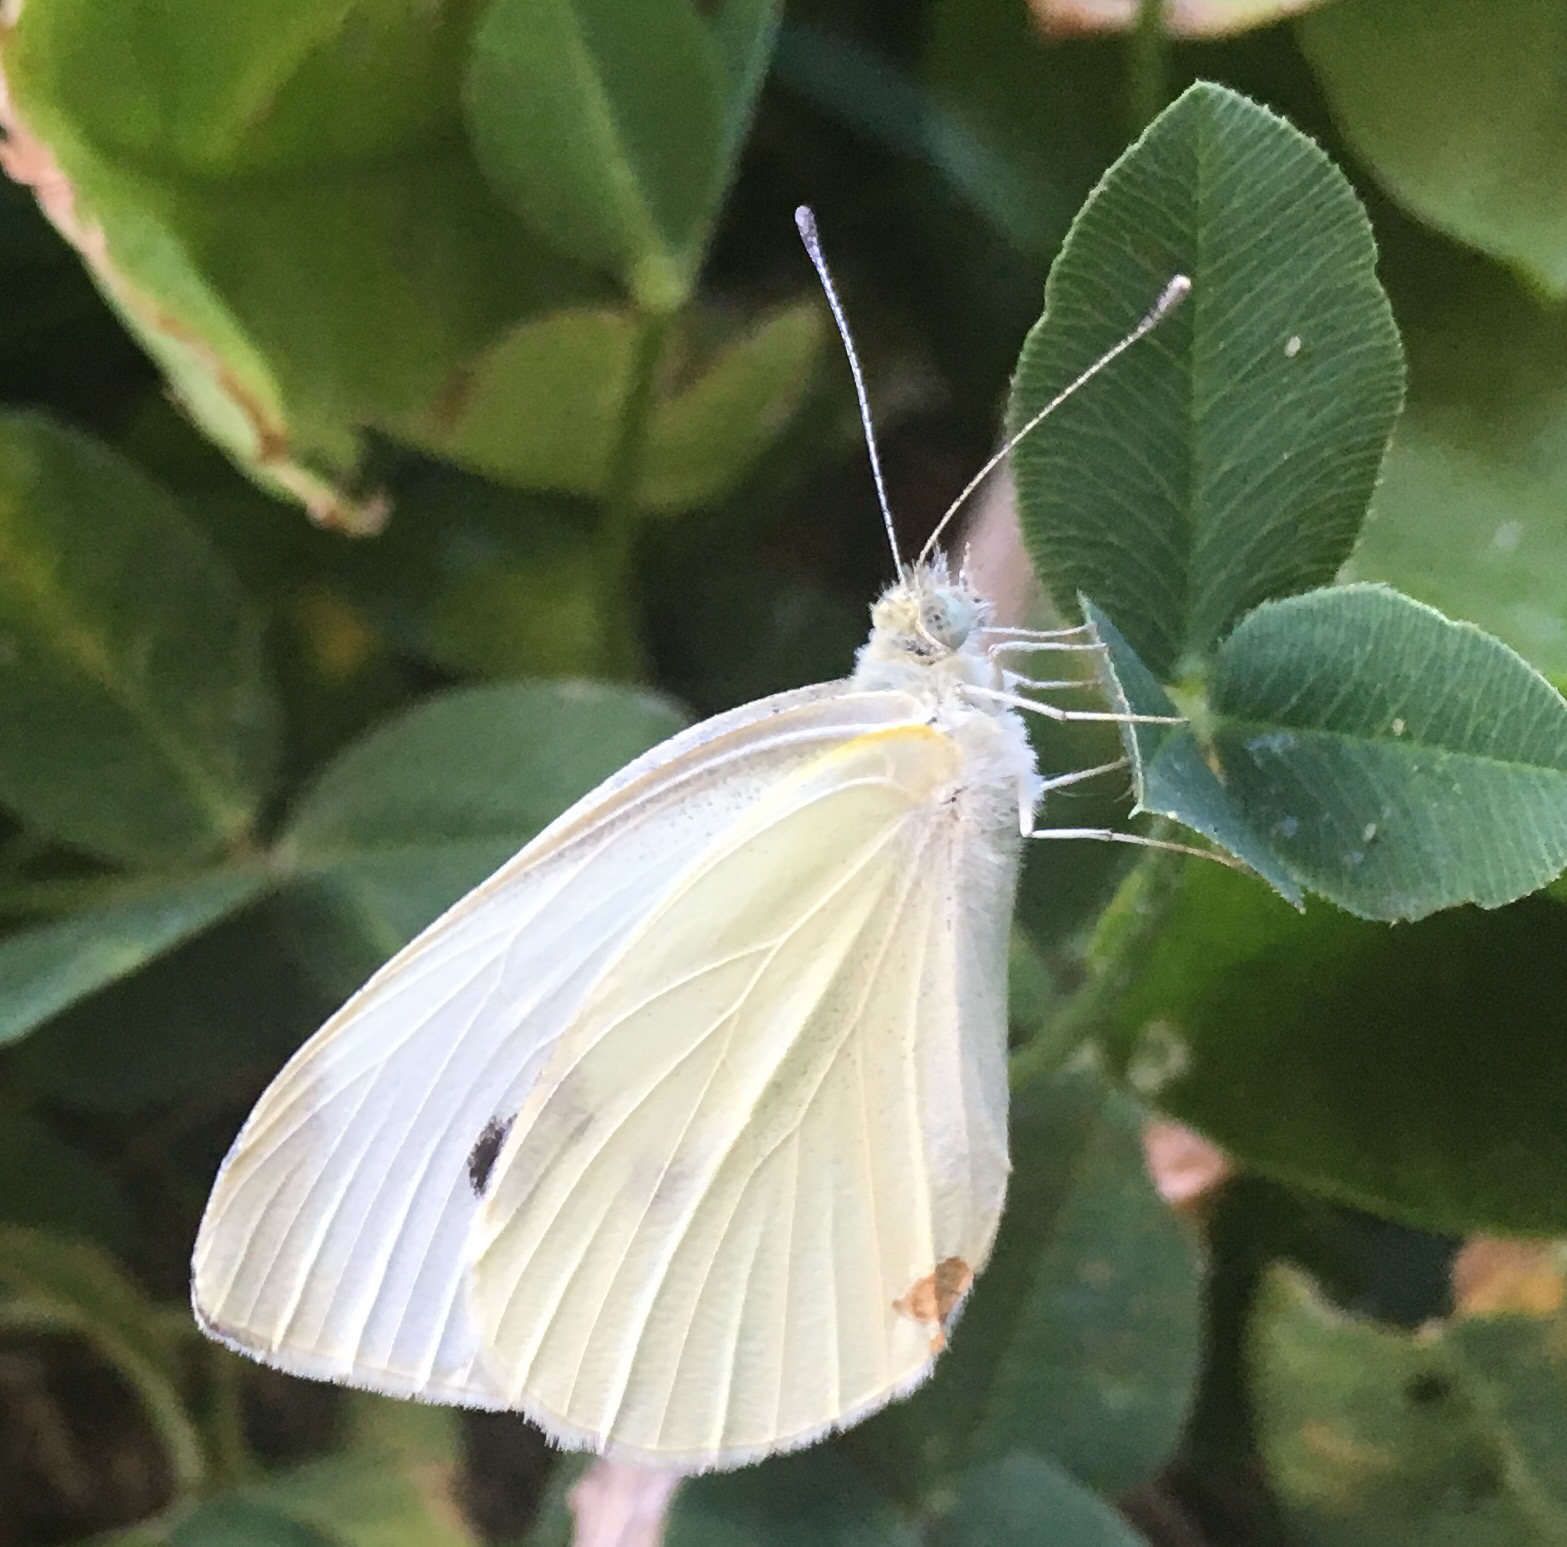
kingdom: Animalia
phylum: Arthropoda
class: Insecta
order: Lepidoptera
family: Pieridae
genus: Pieris
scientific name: Pieris rapae
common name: Small white
